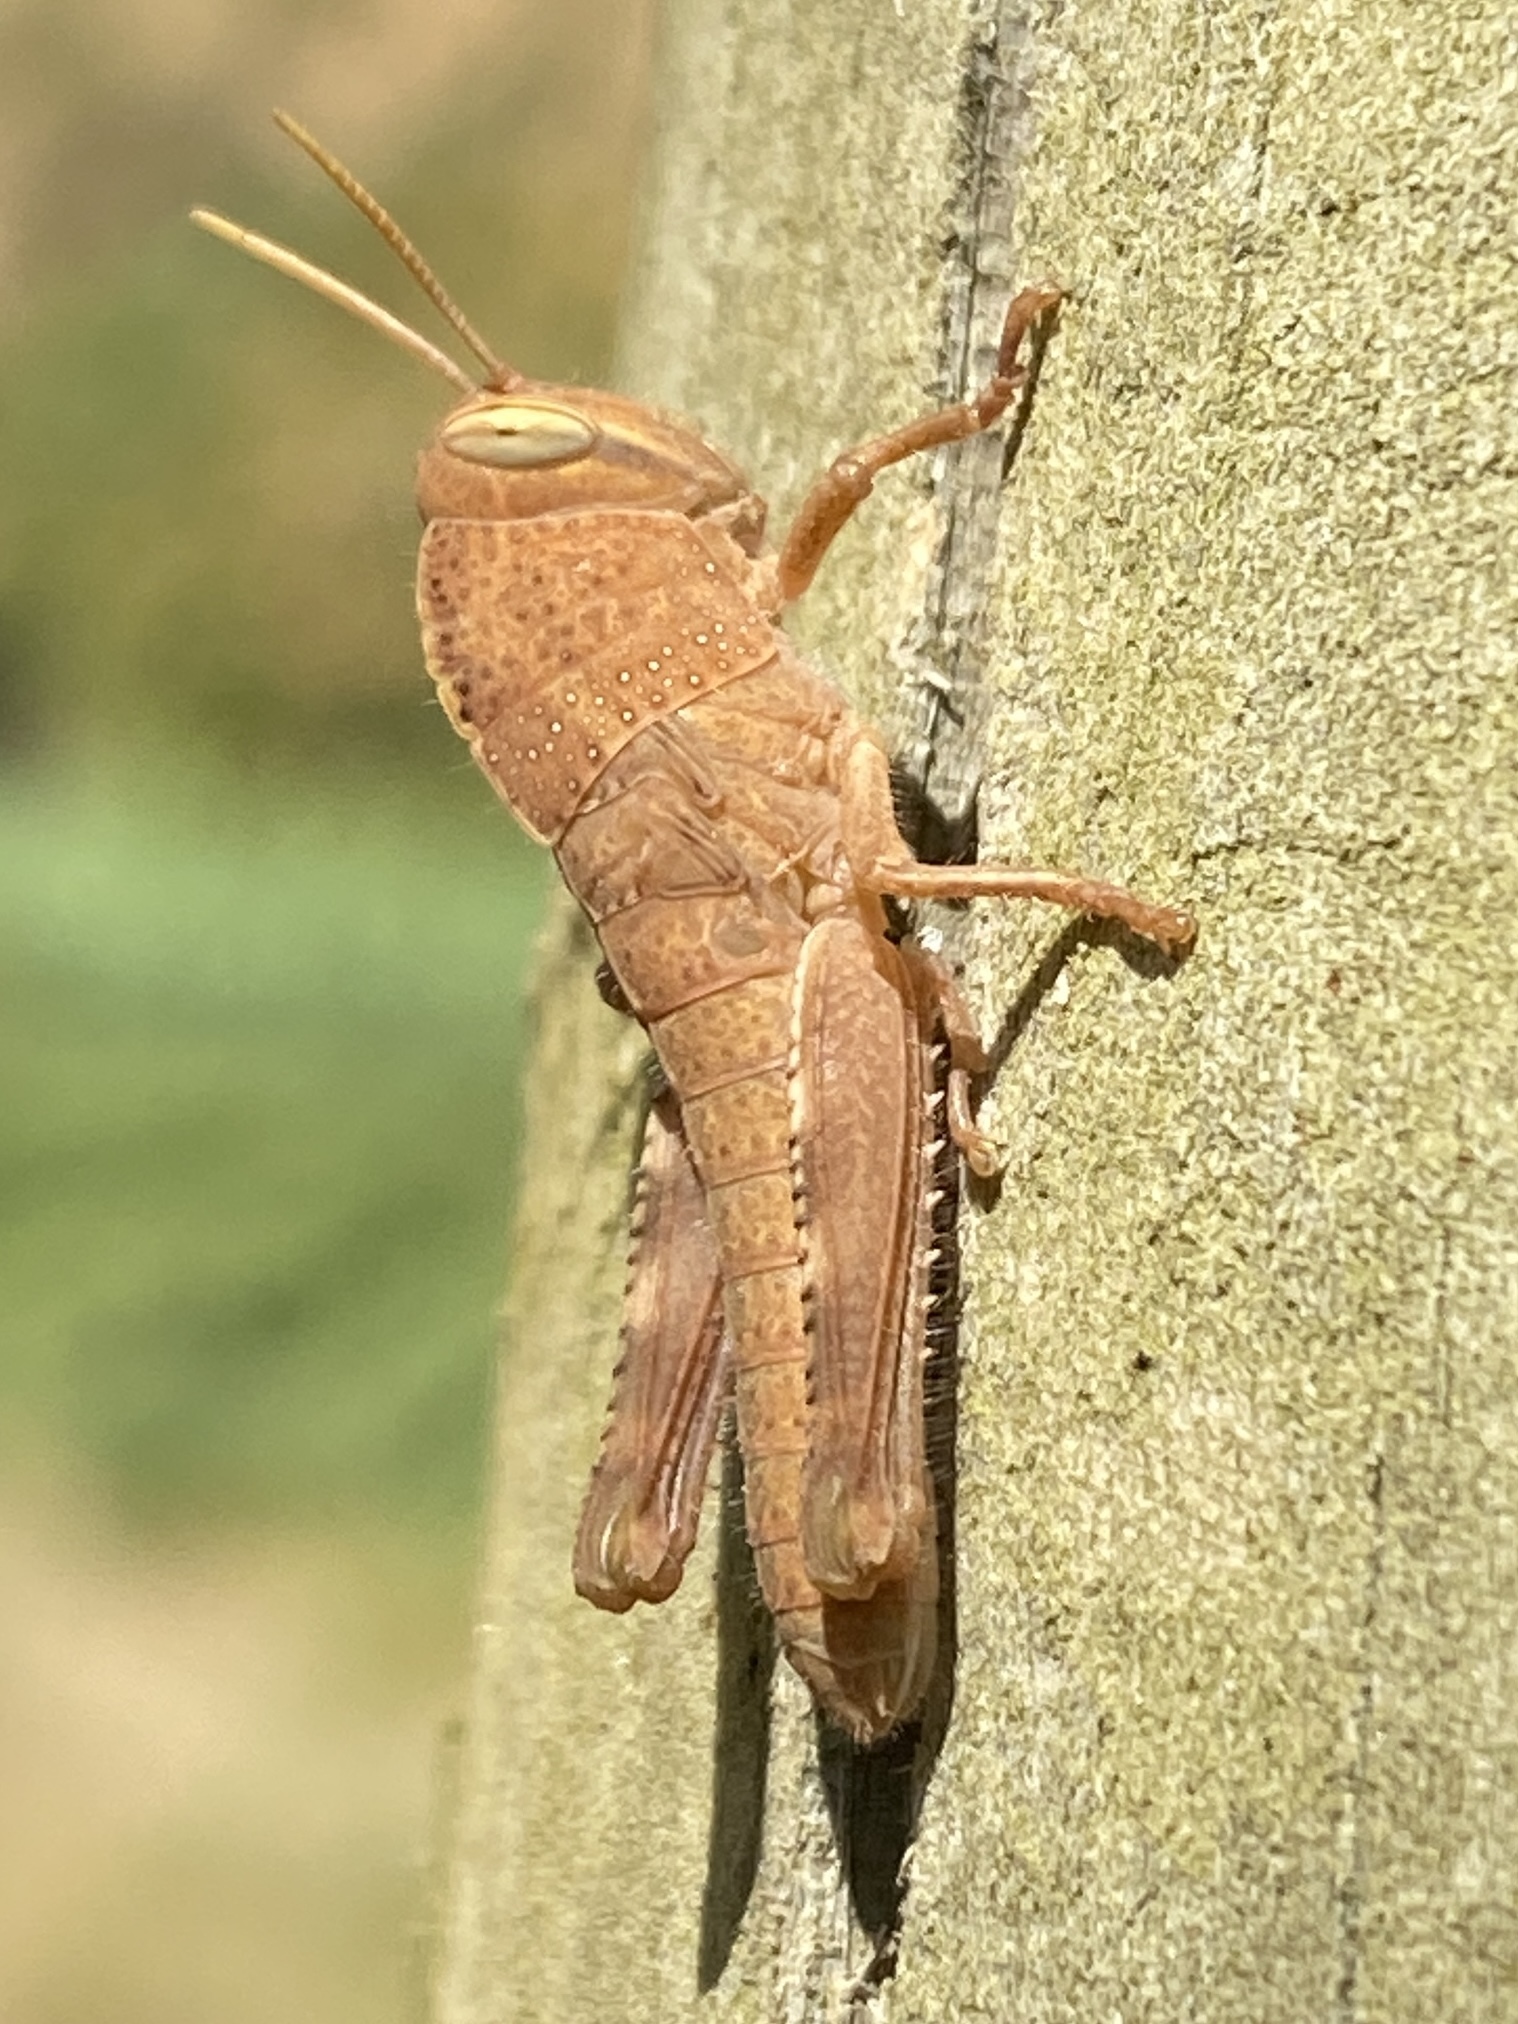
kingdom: Animalia
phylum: Arthropoda
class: Insecta
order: Orthoptera
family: Acrididae
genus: Anacridium
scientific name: Anacridium aegyptium
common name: Egyptian grasshopper
